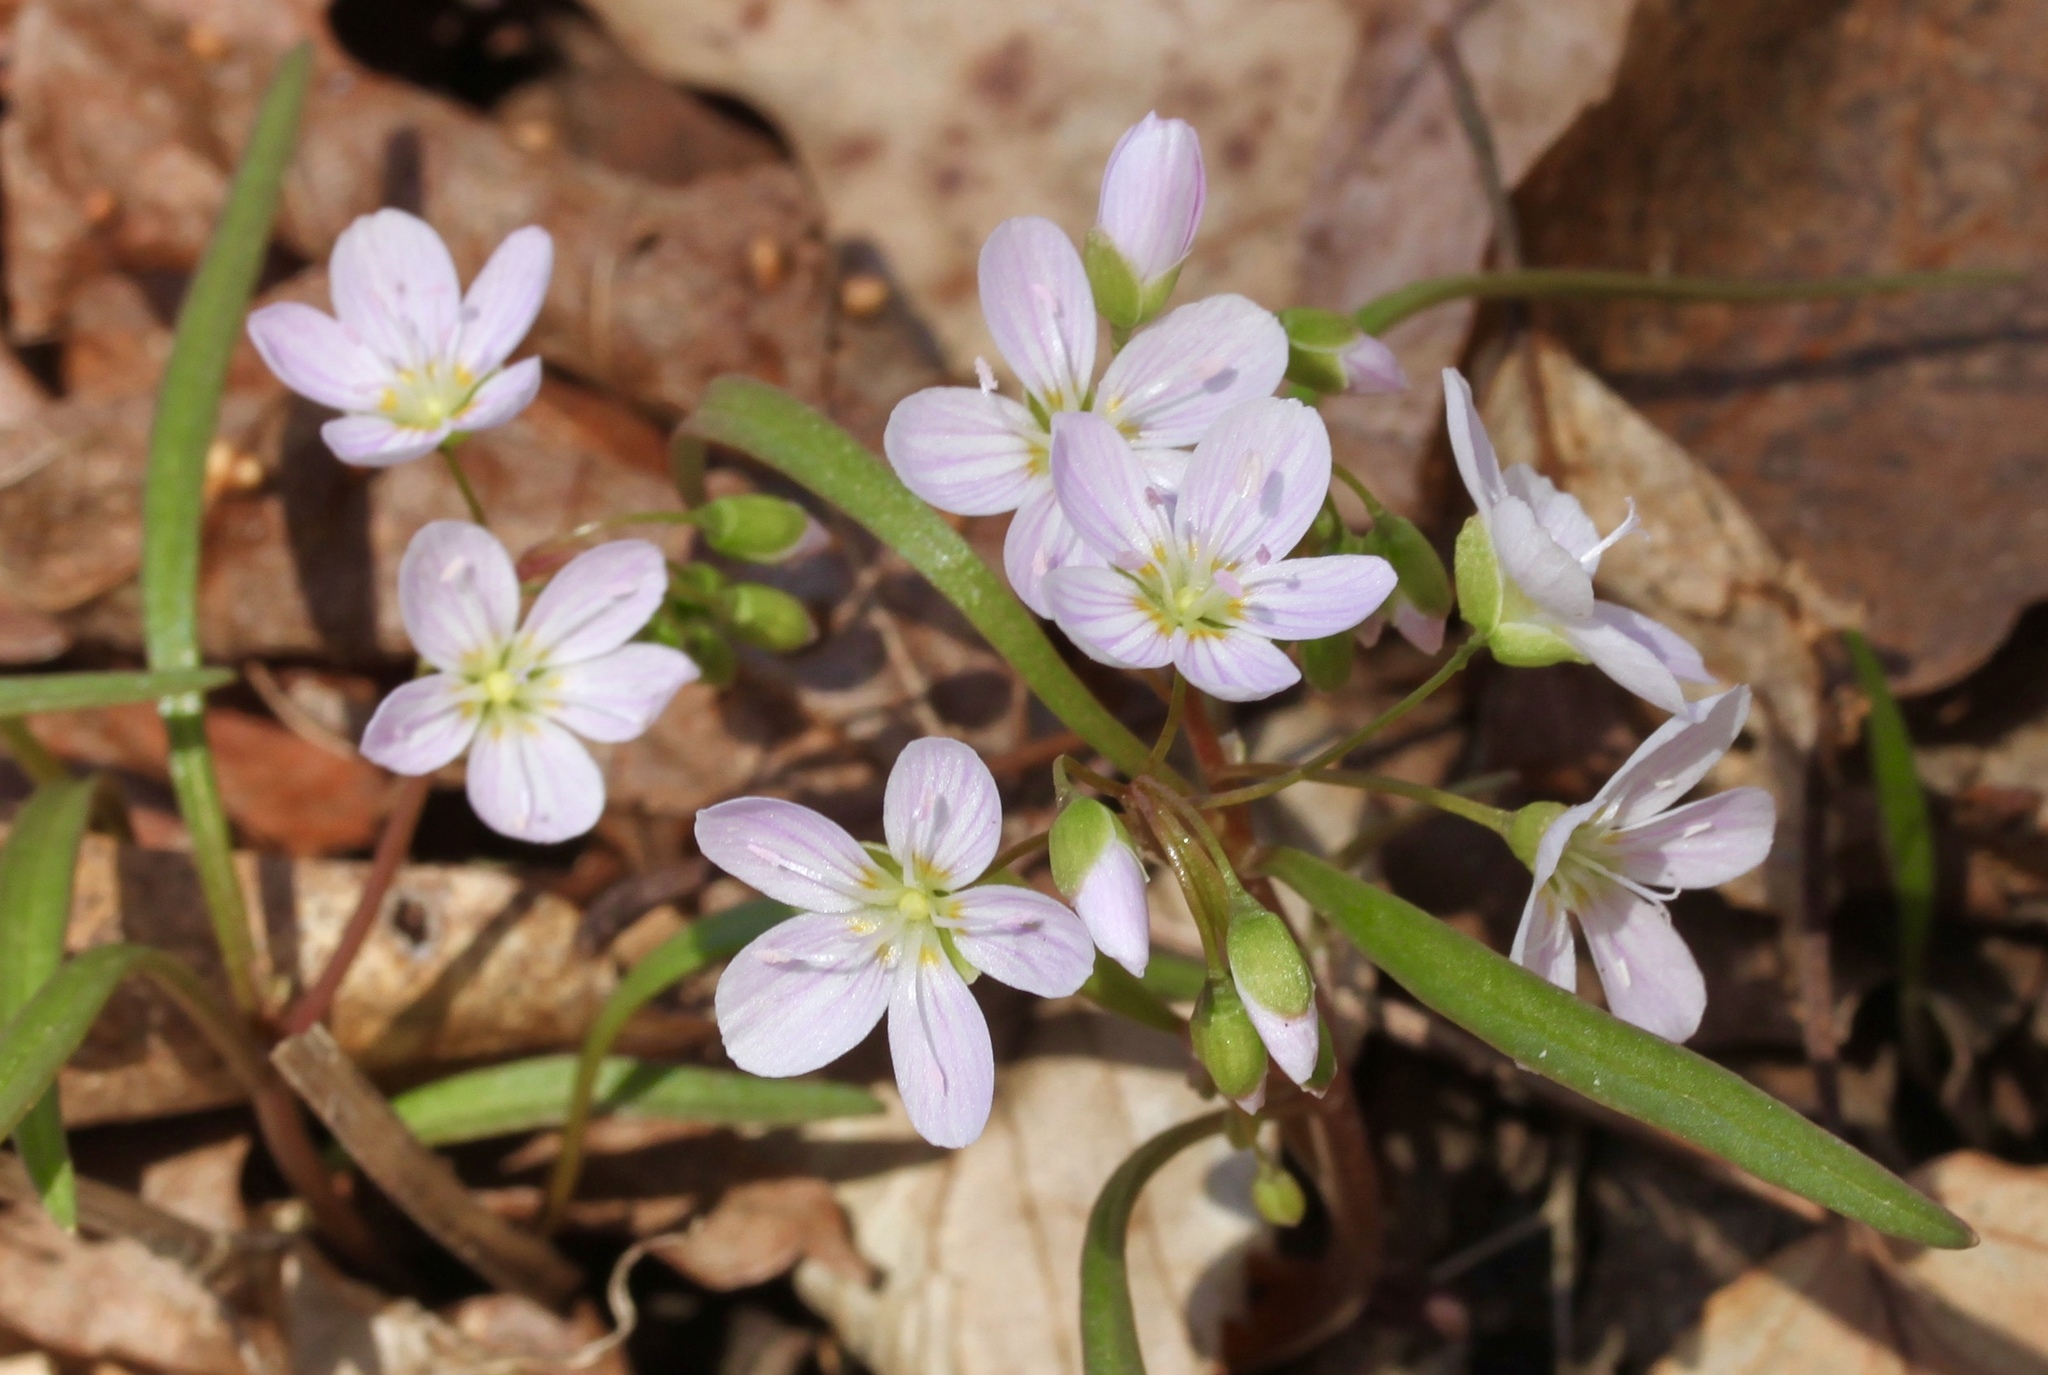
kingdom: Plantae
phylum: Tracheophyta
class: Magnoliopsida
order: Caryophyllales
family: Montiaceae
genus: Claytonia
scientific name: Claytonia virginica
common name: Virginia springbeauty
